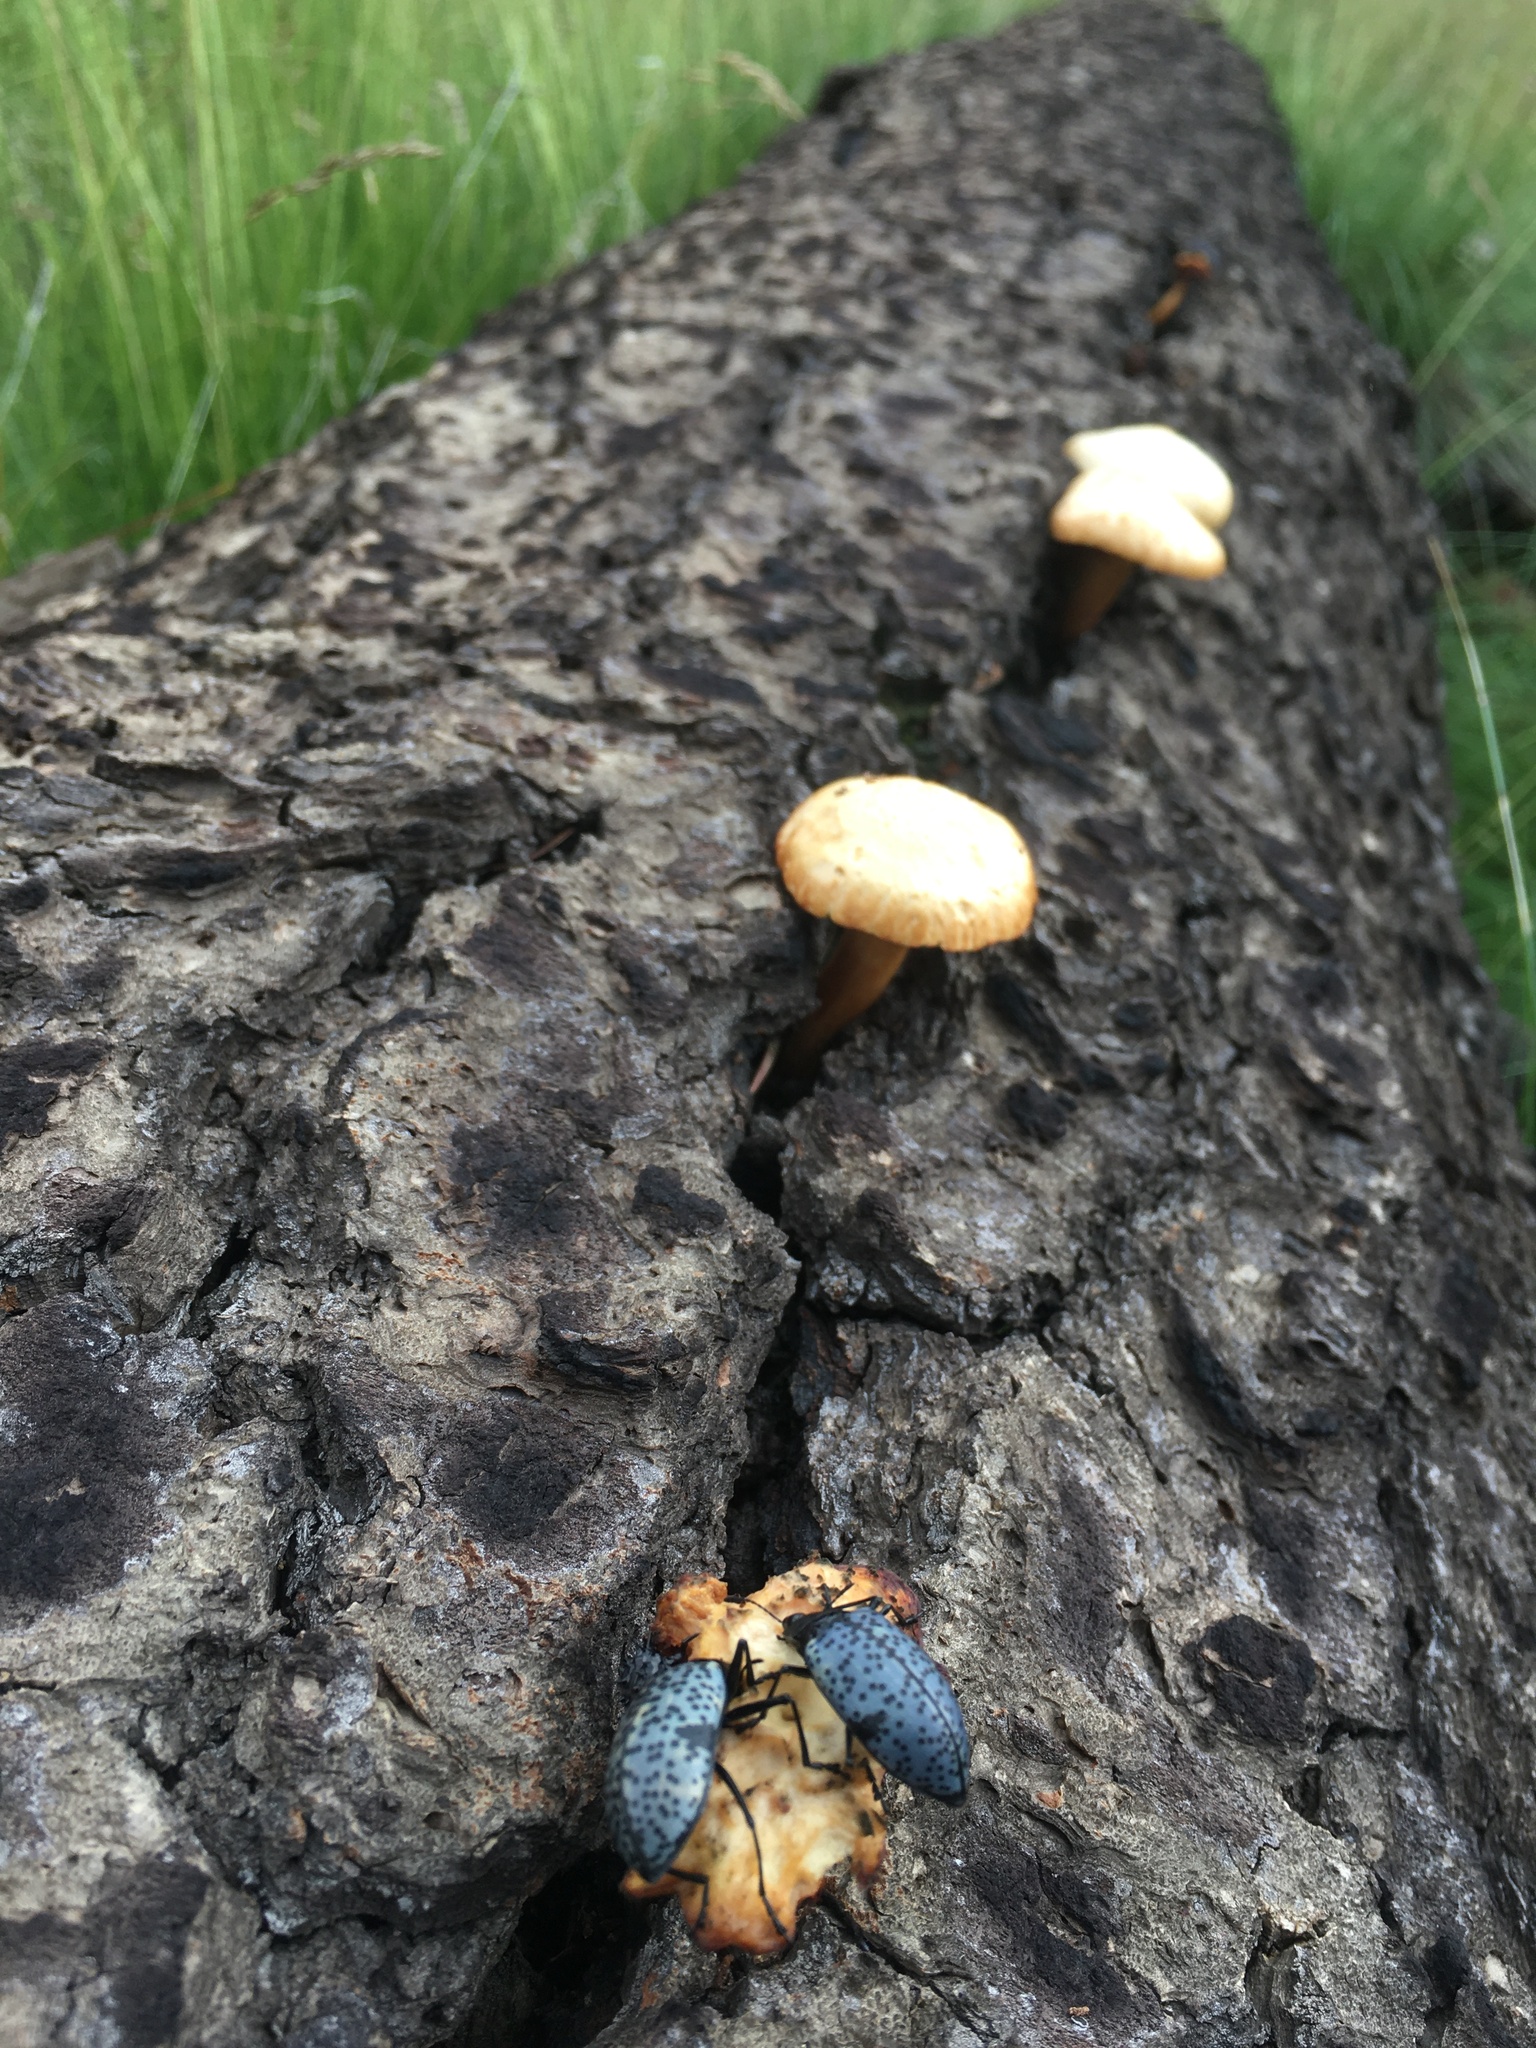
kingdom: Fungi
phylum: Basidiomycota
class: Agaricomycetes
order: Agaricales
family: Hymenogastraceae
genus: Gymnopilus
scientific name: Gymnopilus luteofolius
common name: Yellow-gilled gymnopilus
